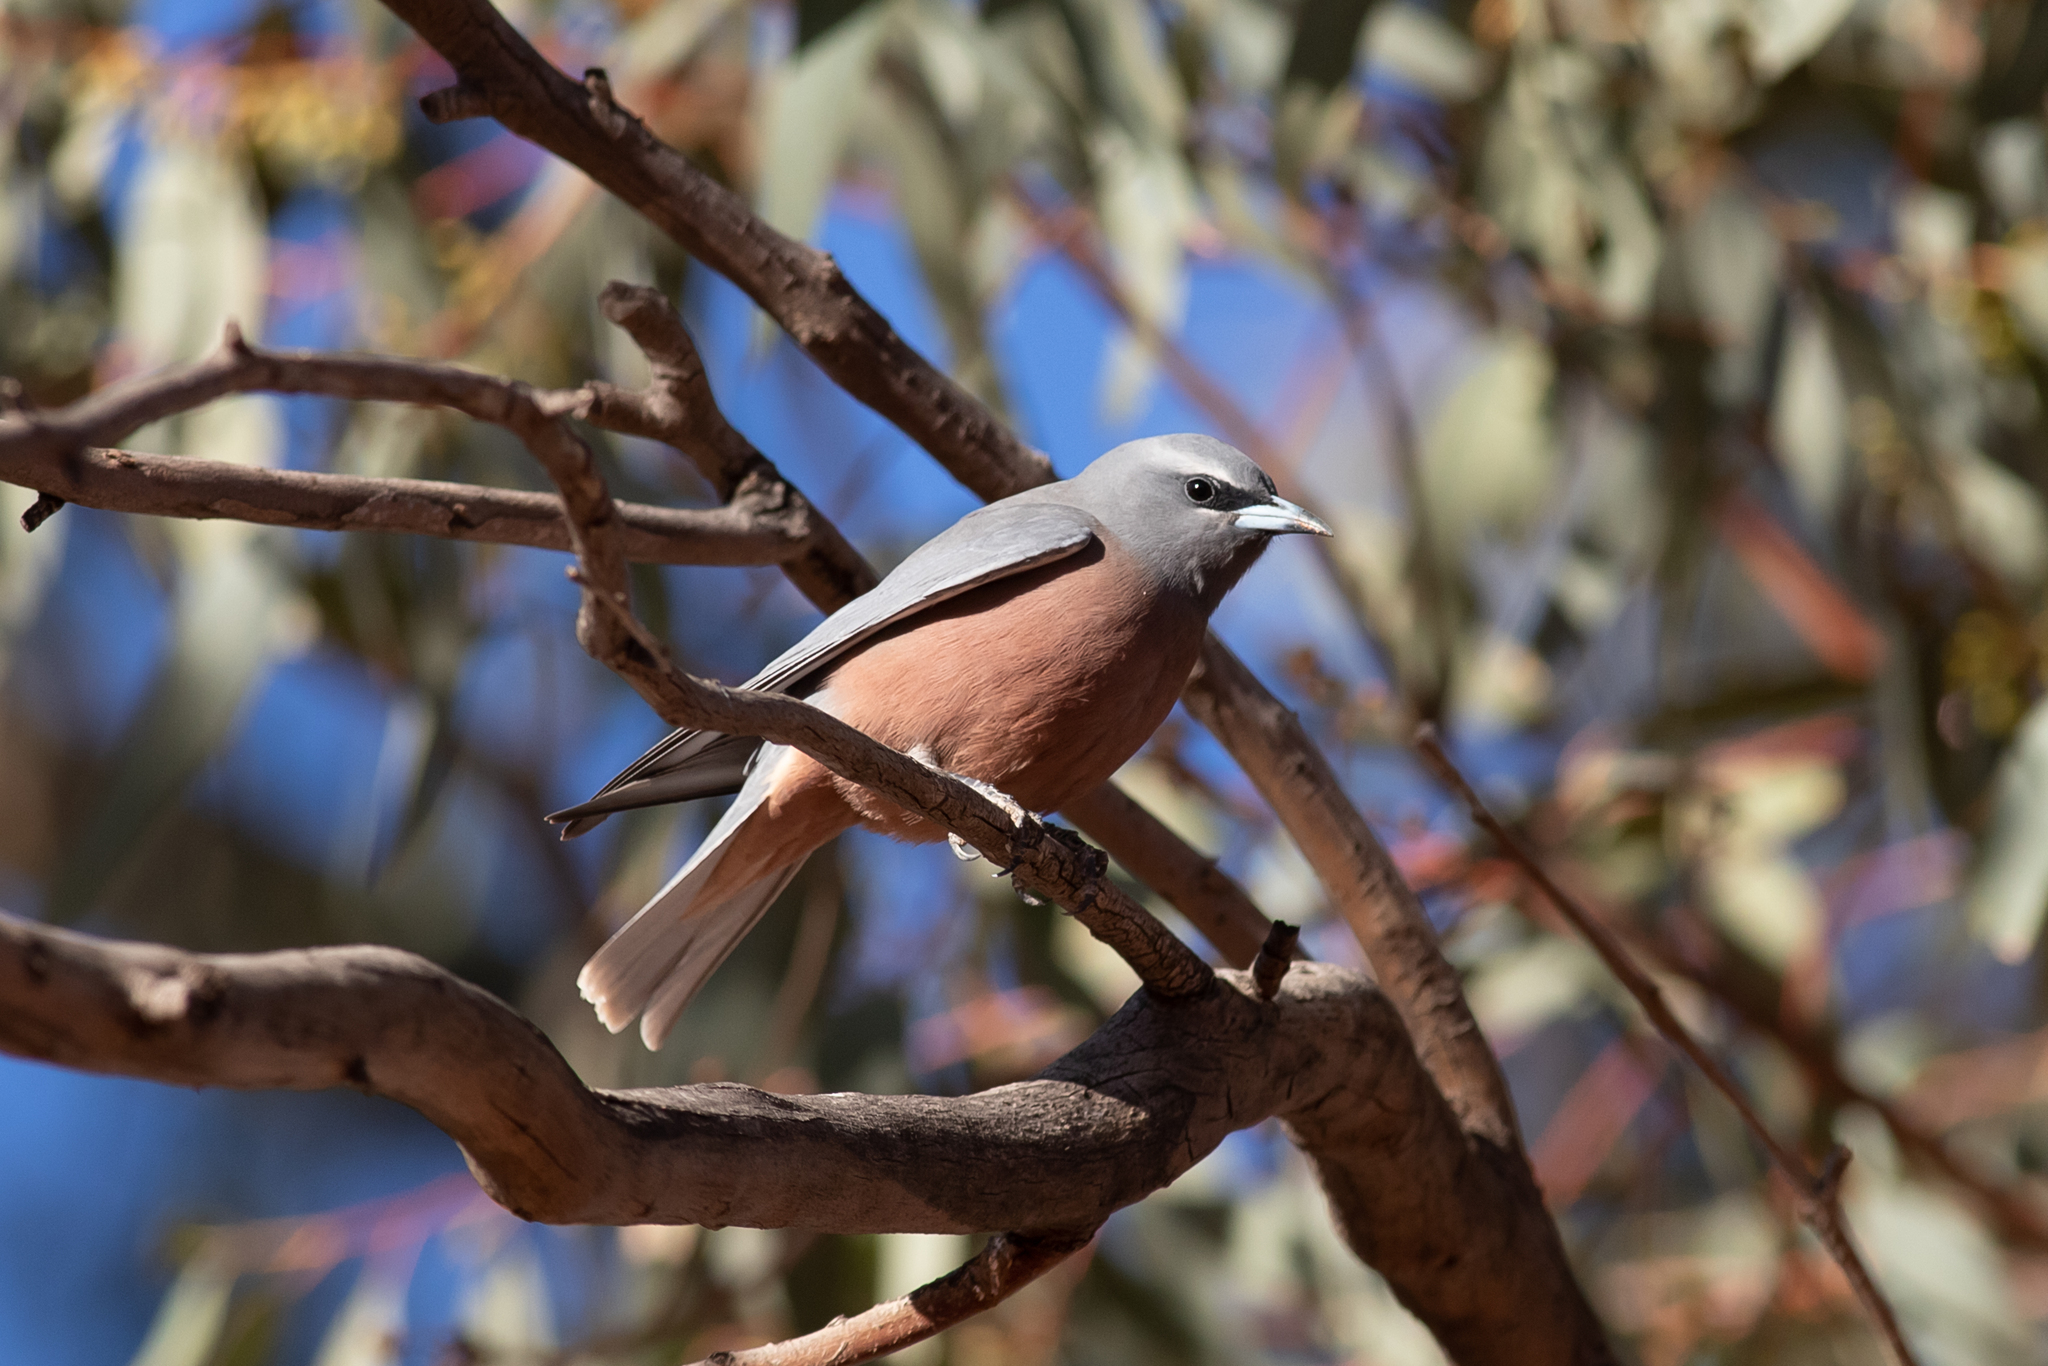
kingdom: Animalia
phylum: Chordata
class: Aves
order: Passeriformes
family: Artamidae
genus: Artamus
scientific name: Artamus superciliosus
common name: White-browed woodswallow
